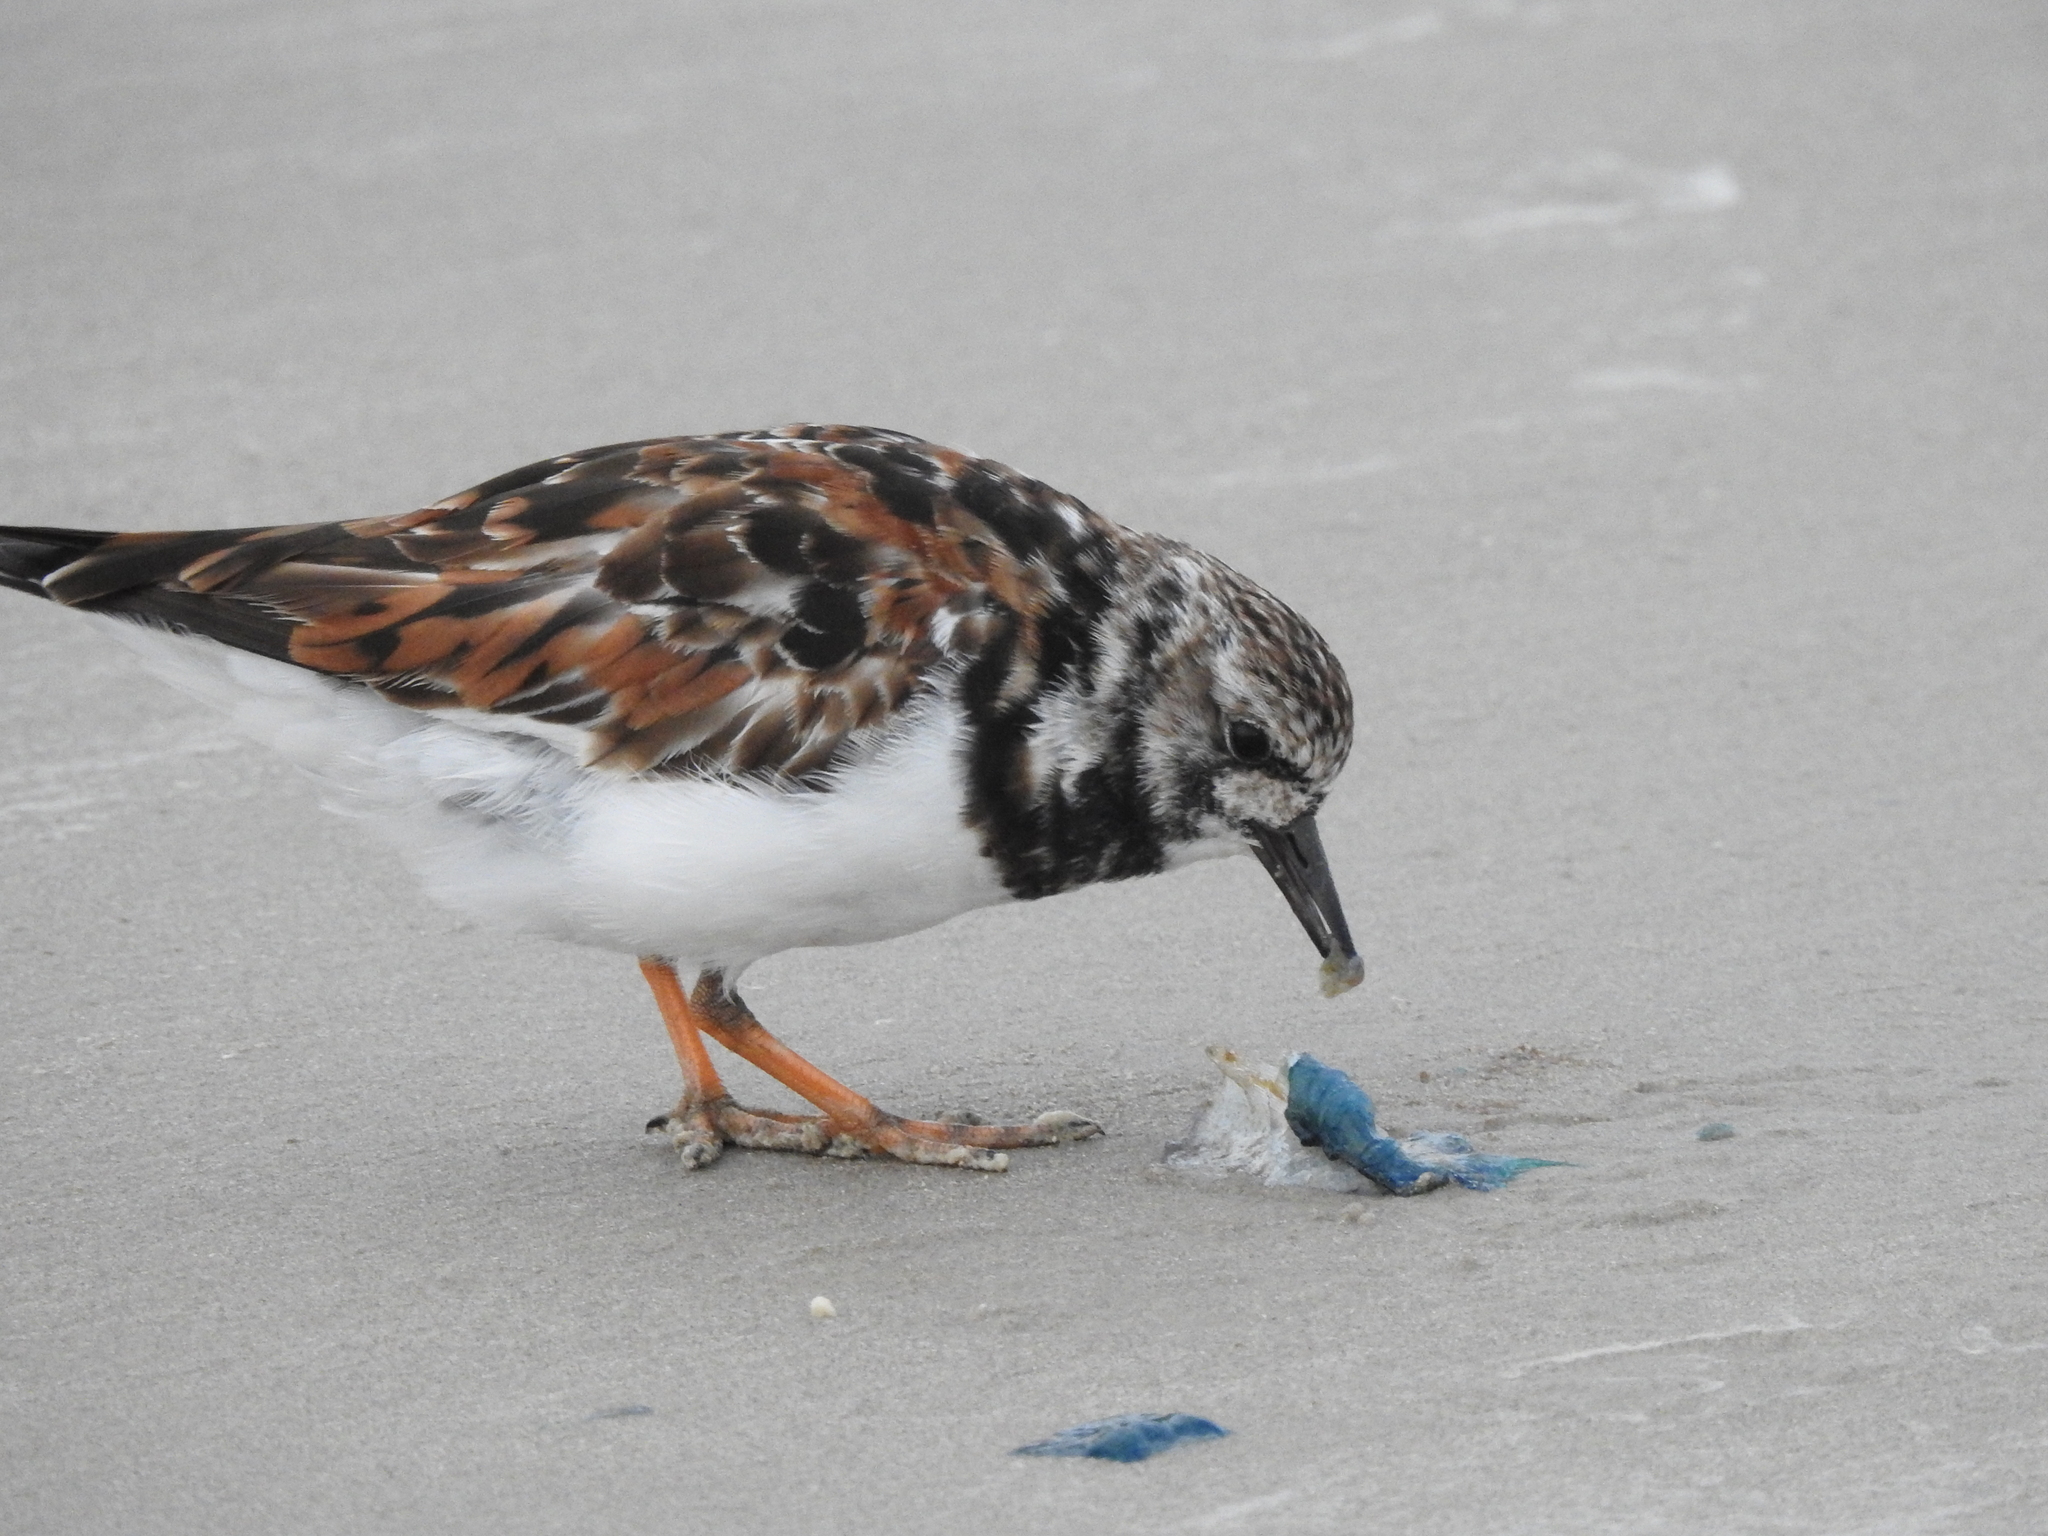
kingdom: Animalia
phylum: Chordata
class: Aves
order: Charadriiformes
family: Scolopacidae
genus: Arenaria
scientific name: Arenaria interpres
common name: Ruddy turnstone
